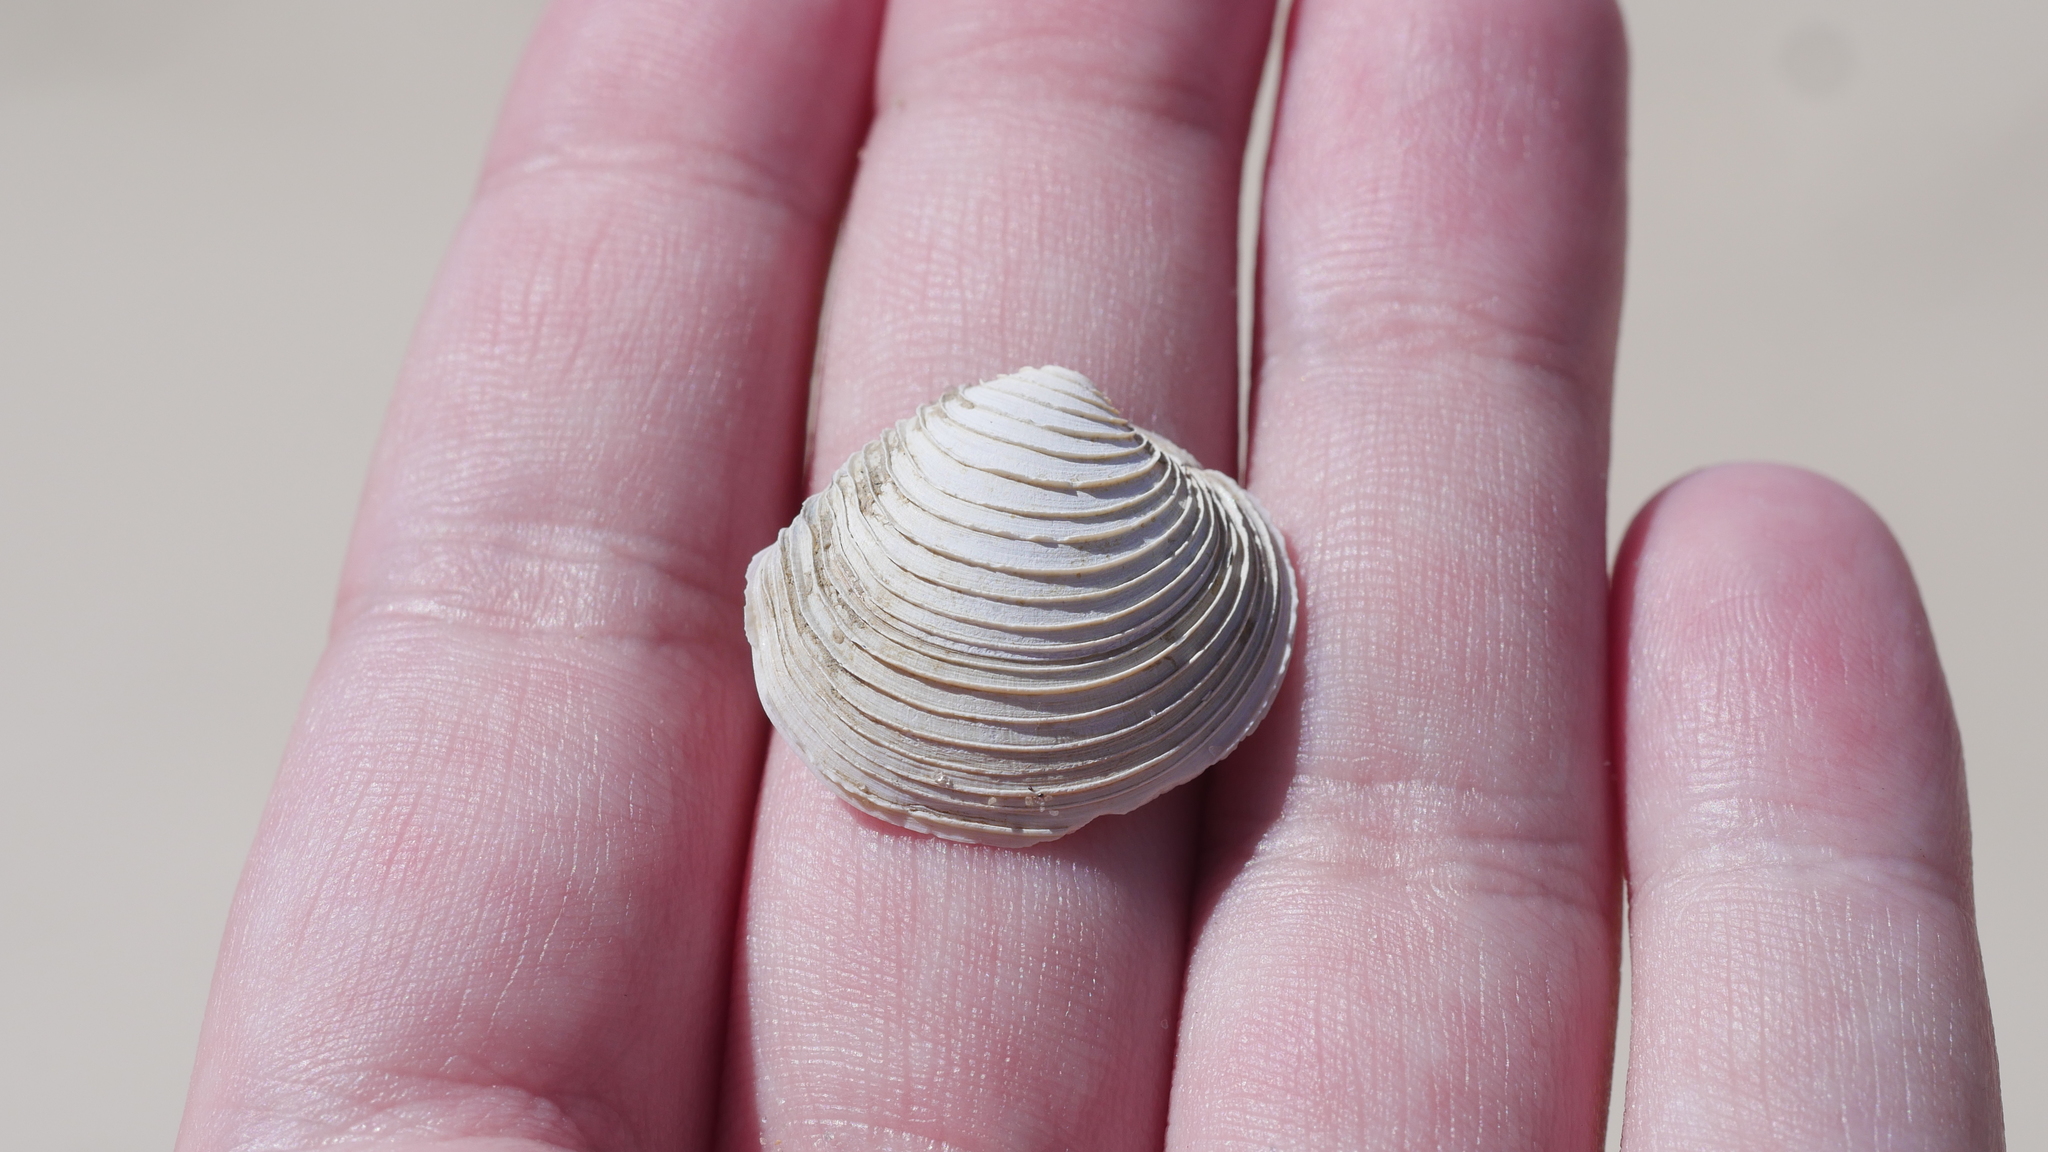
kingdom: Animalia
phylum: Mollusca
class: Bivalvia
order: Venerida
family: Veneridae
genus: Mercenaria
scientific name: Mercenaria mercenaria
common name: American hard-shelled clam
